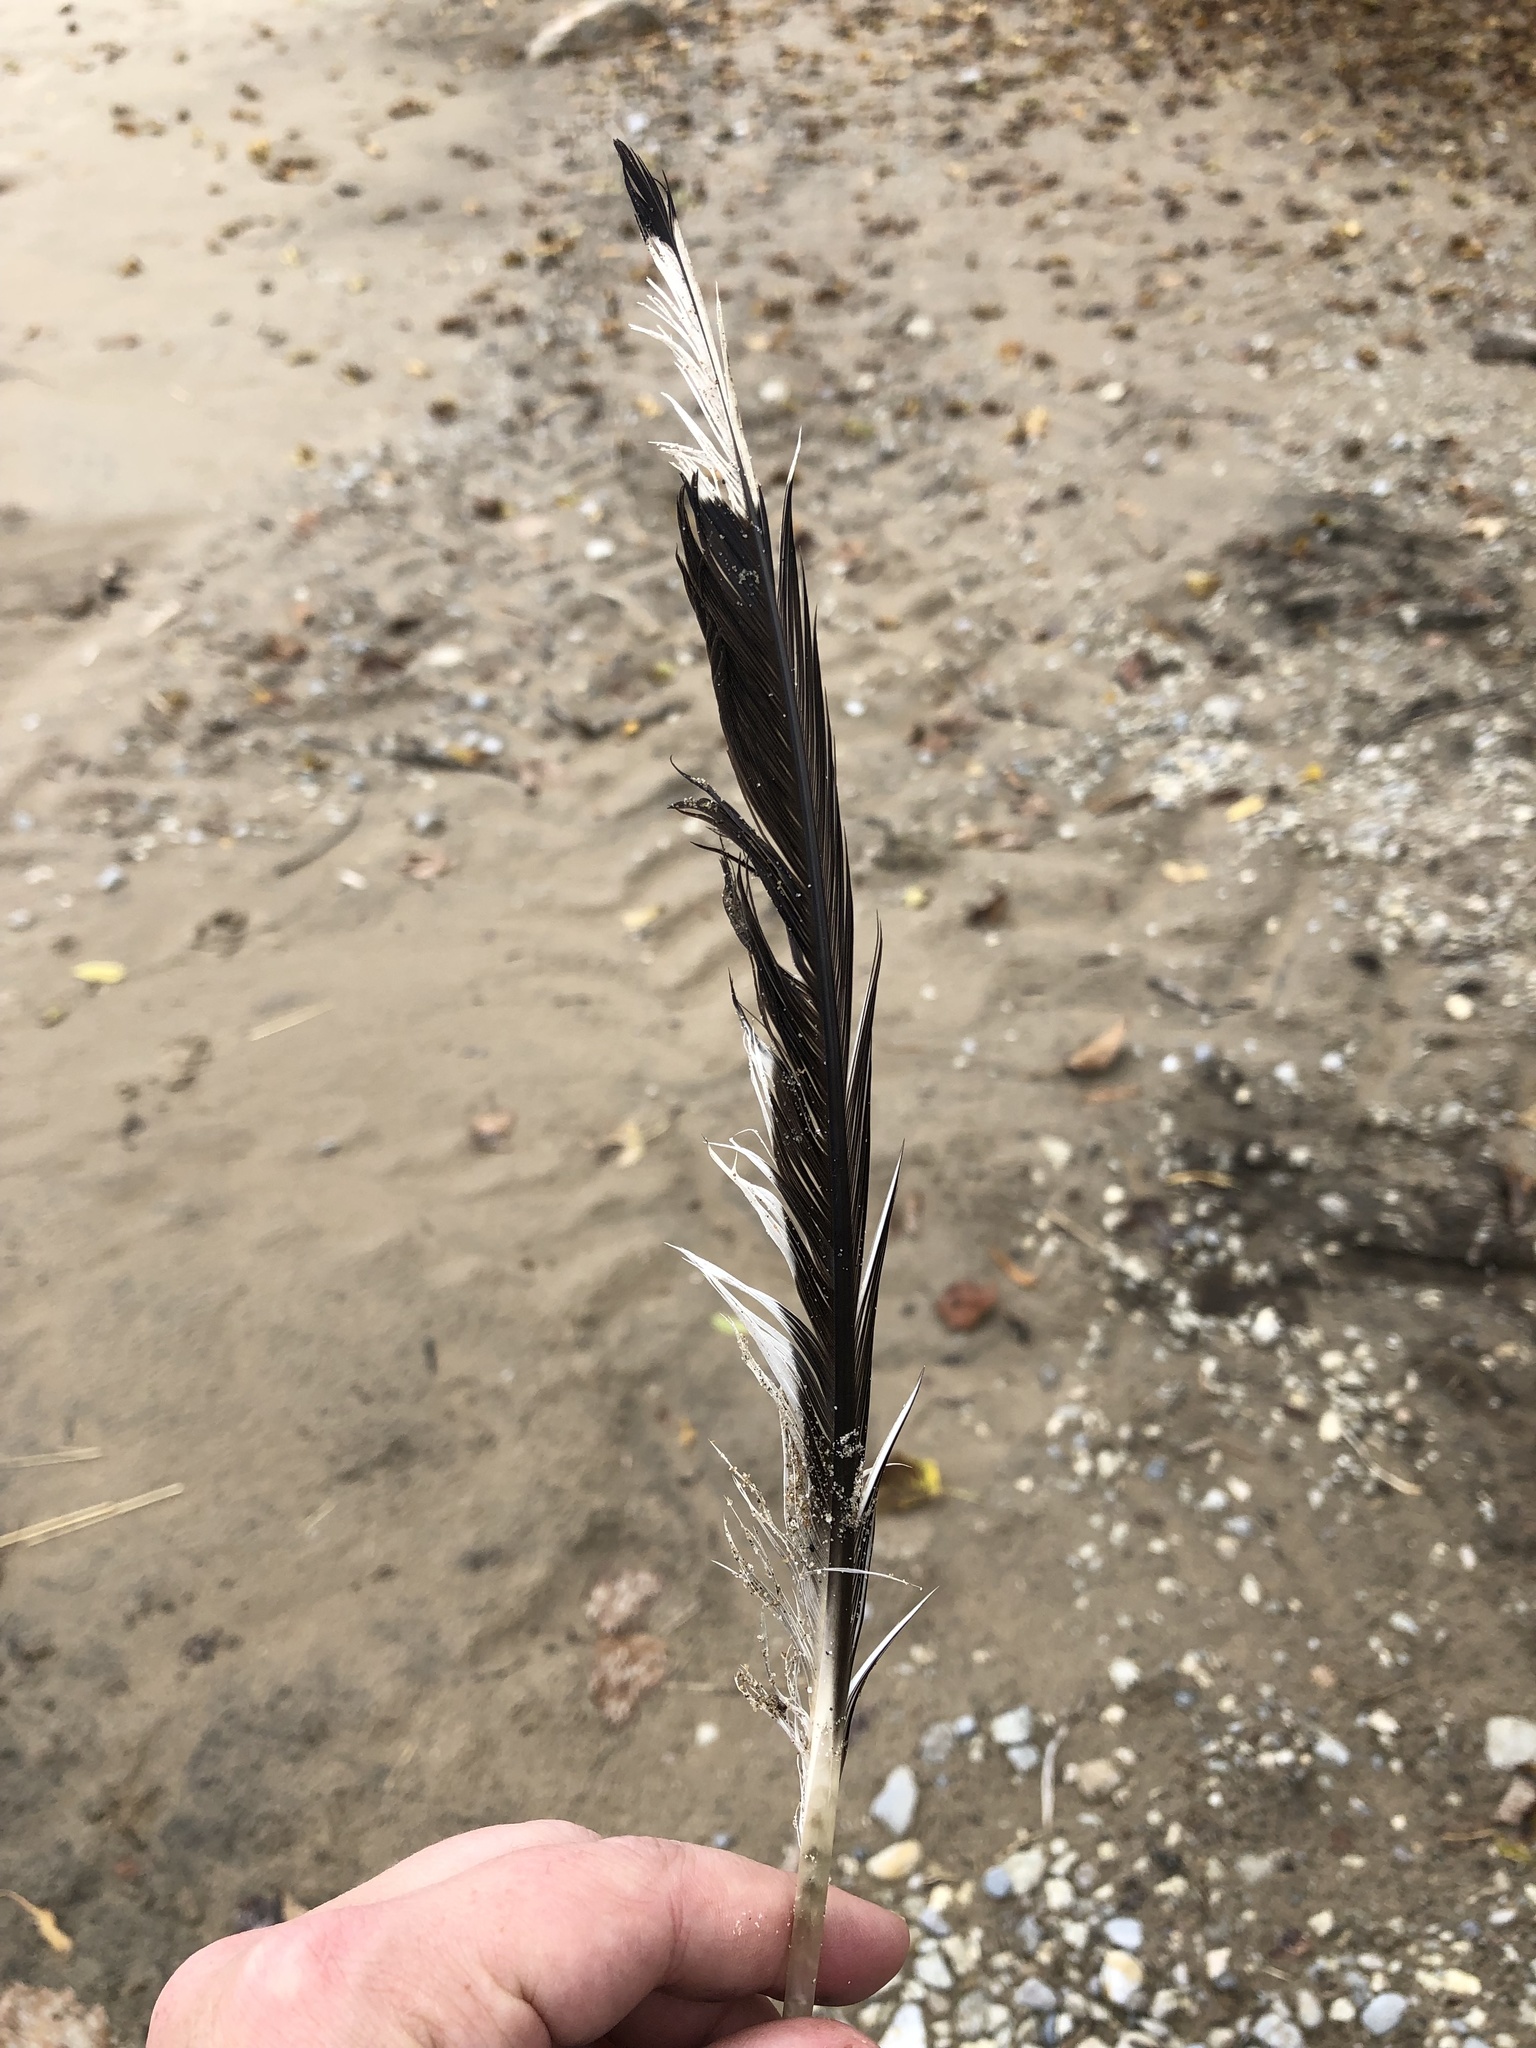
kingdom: Animalia
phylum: Chordata
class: Aves
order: Charadriiformes
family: Laridae
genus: Larus
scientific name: Larus delawarensis
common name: Ring-billed gull
